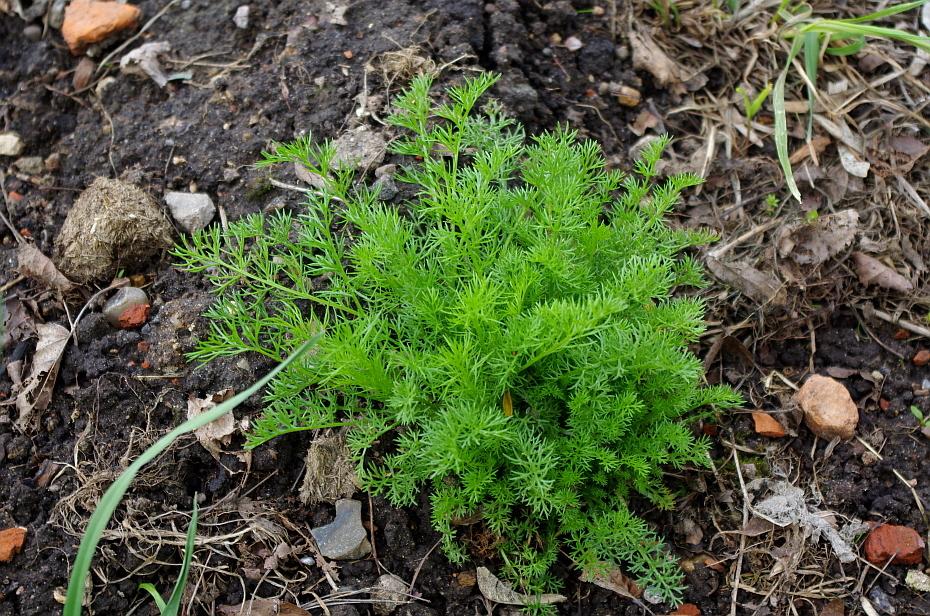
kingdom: Plantae
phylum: Tracheophyta
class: Magnoliopsida
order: Asterales
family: Asteraceae
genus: Tripleurospermum
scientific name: Tripleurospermum inodorum
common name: Scentless mayweed
